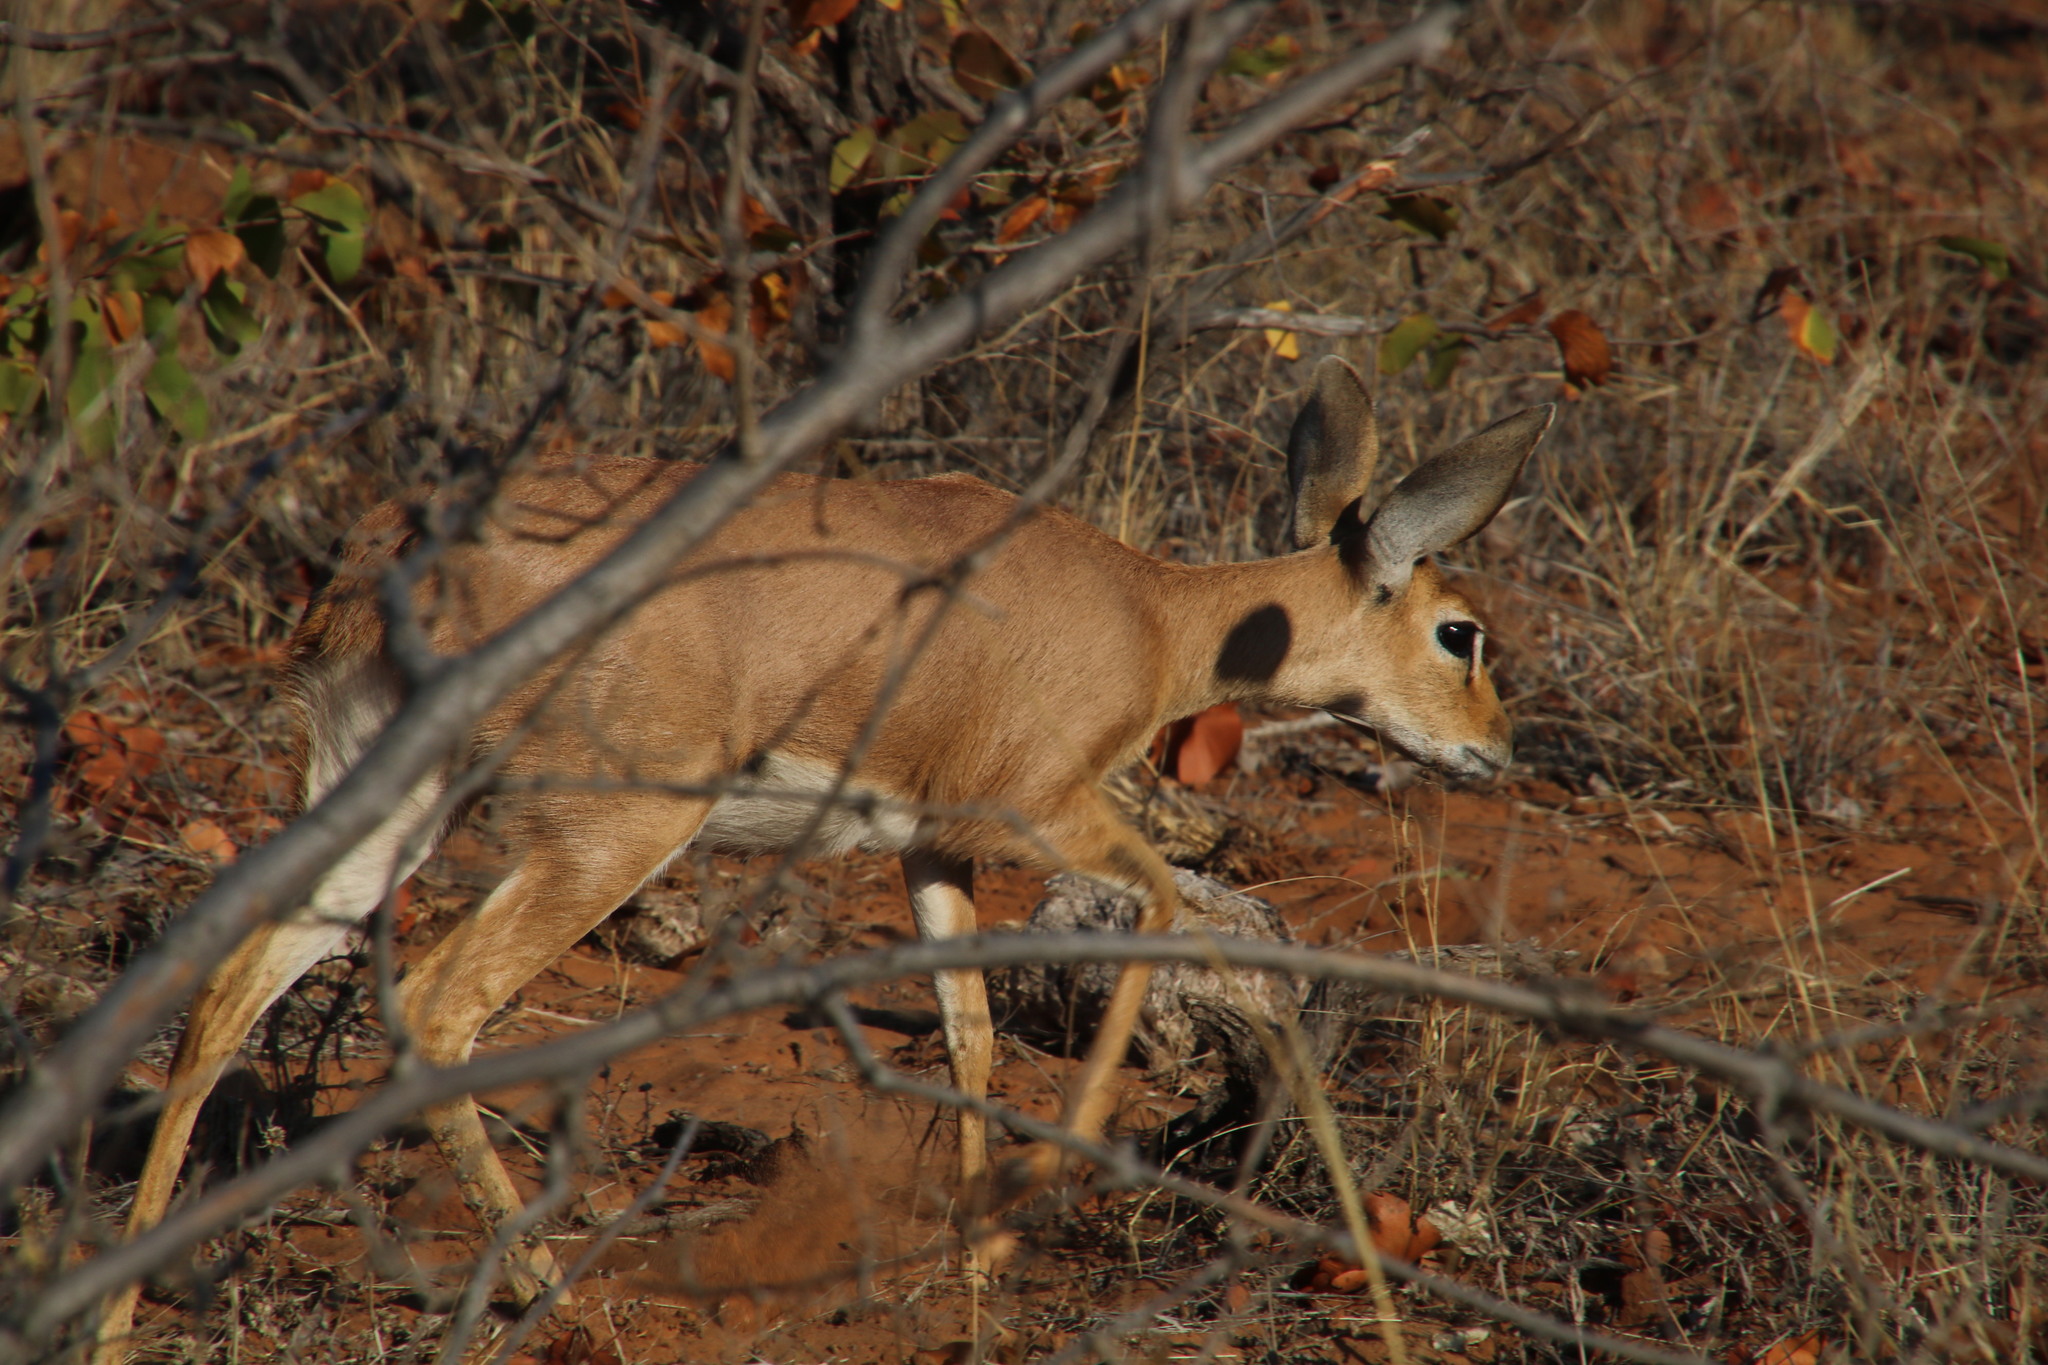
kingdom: Animalia
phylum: Chordata
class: Mammalia
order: Artiodactyla
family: Bovidae
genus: Raphicerus
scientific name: Raphicerus campestris
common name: Steenbok
